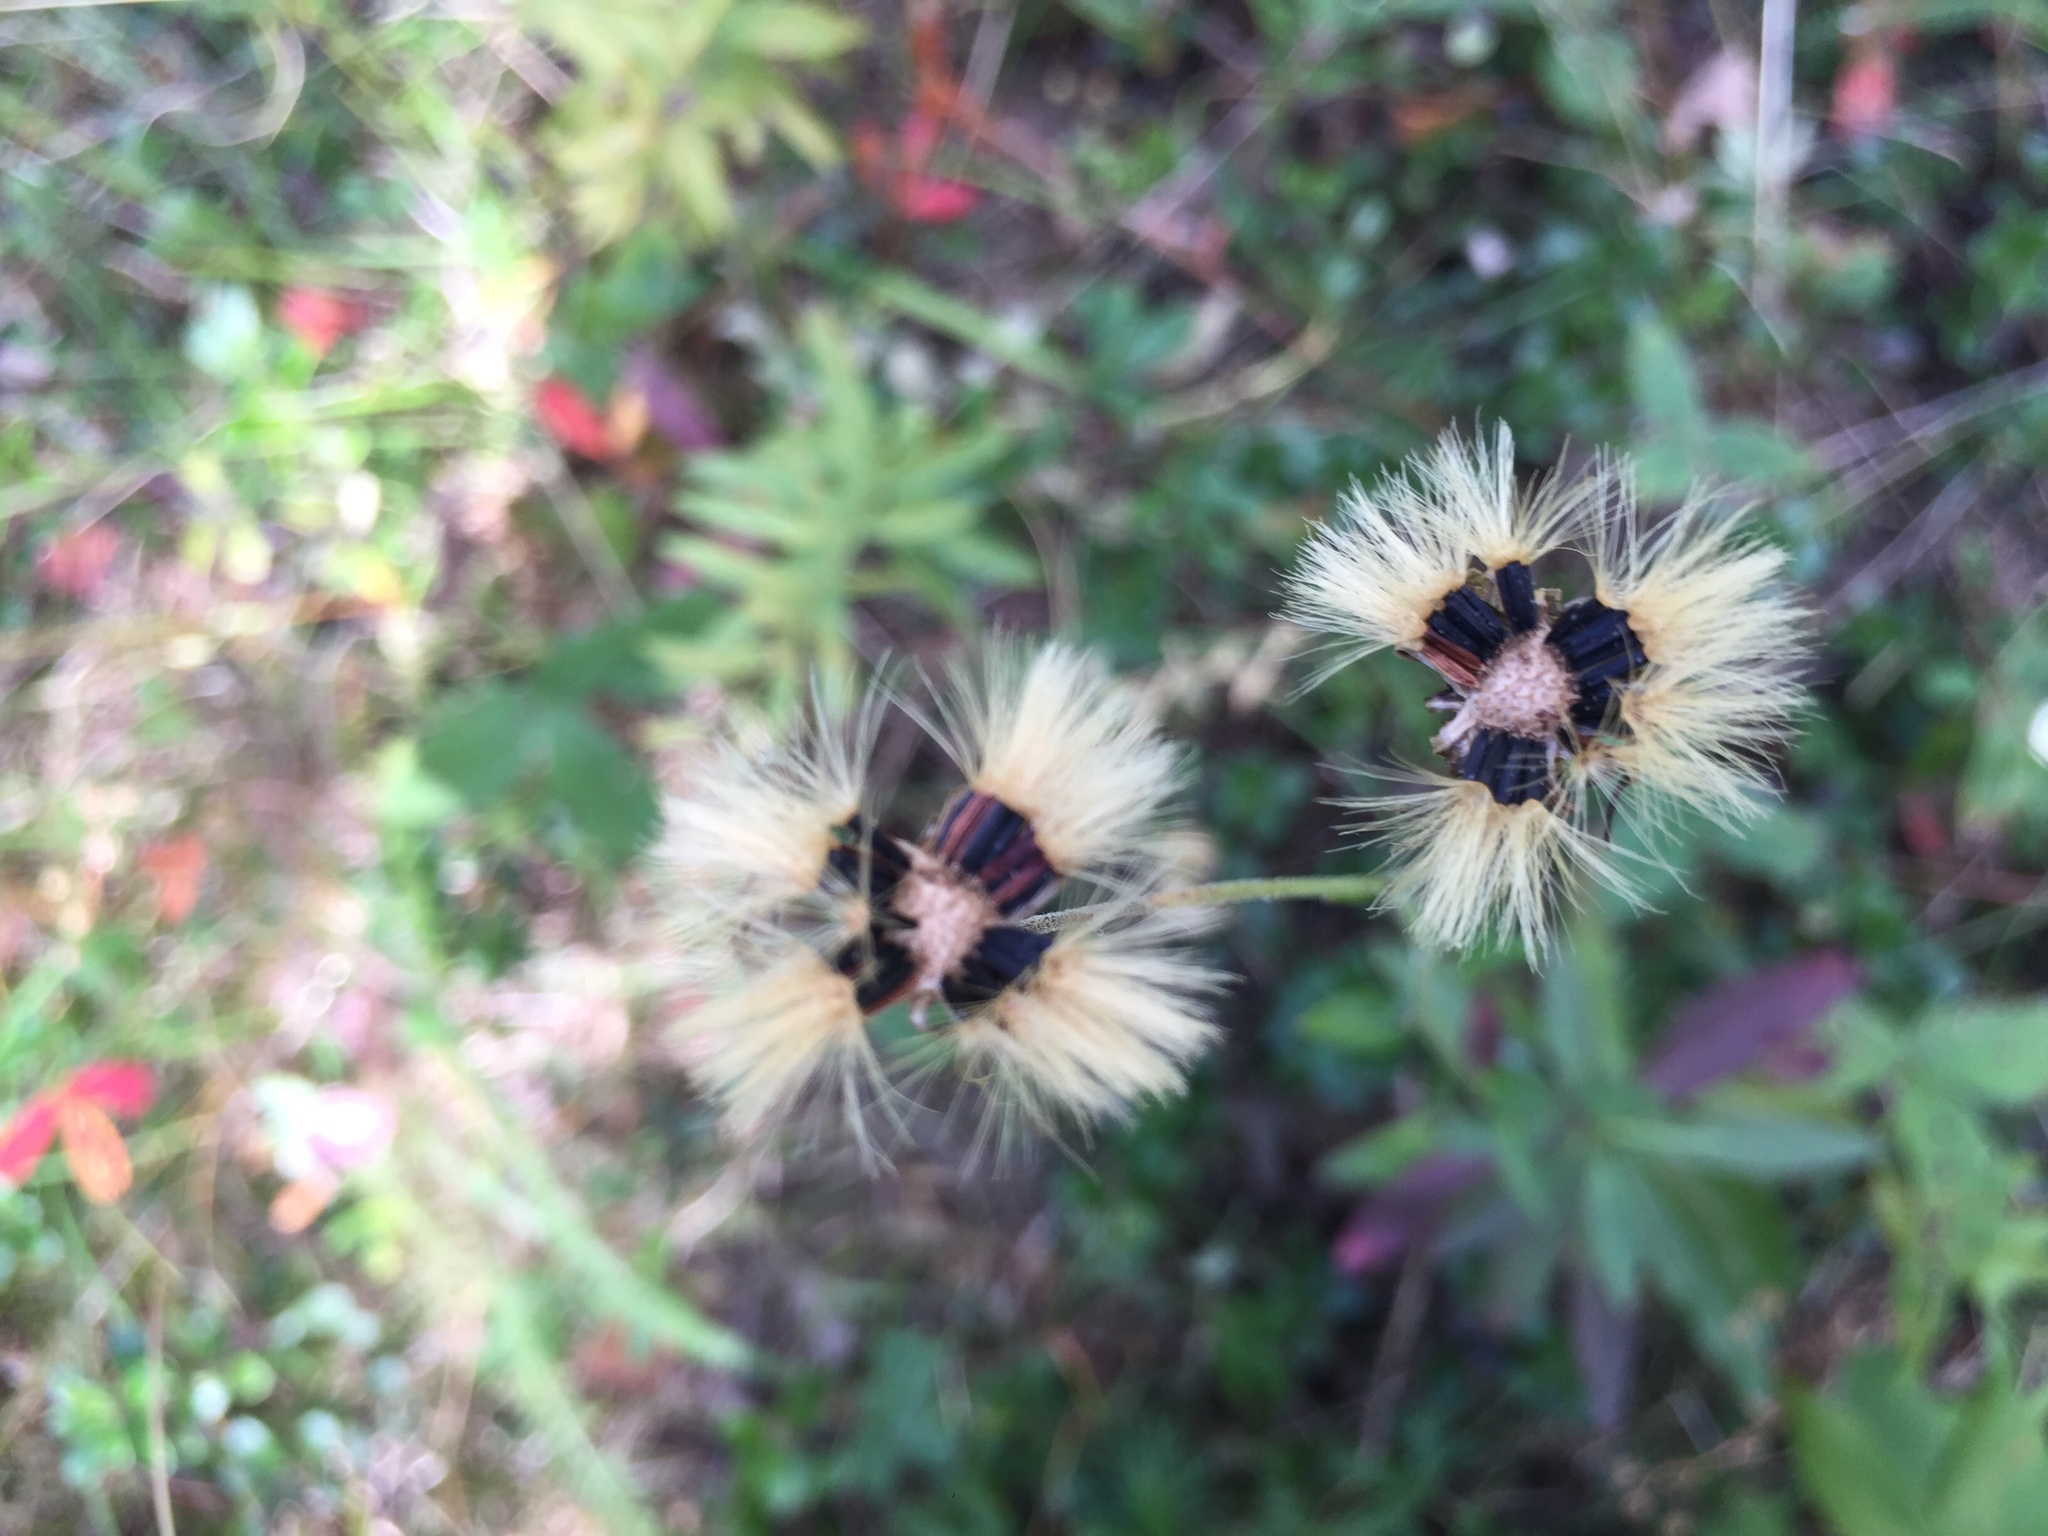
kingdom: Plantae
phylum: Tracheophyta
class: Magnoliopsida
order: Asterales
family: Asteraceae
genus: Hieracium
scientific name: Hieracium umbellatum
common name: Northern hawkweed
